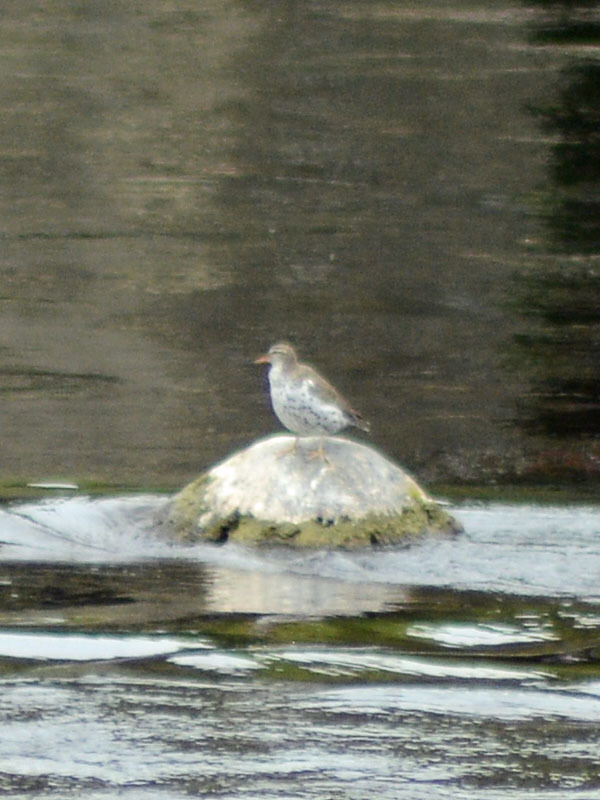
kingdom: Animalia
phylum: Chordata
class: Aves
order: Charadriiformes
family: Scolopacidae
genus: Actitis
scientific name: Actitis macularius
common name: Spotted sandpiper
